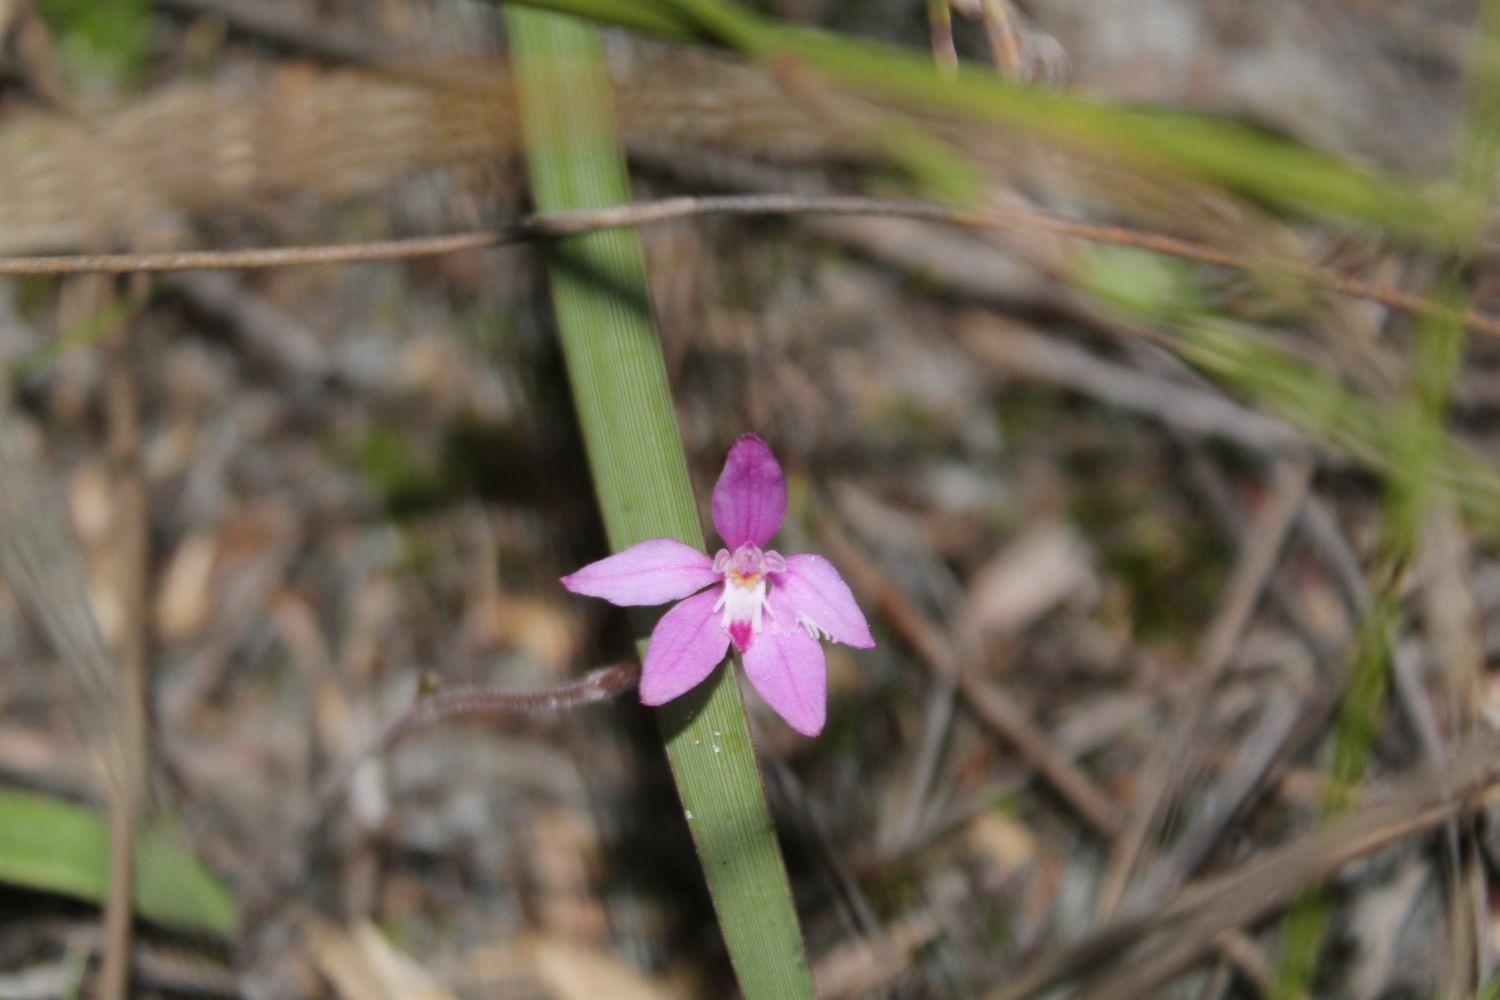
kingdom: Plantae
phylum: Tracheophyta
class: Liliopsida
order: Asparagales
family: Orchidaceae
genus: Caladenia
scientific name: Caladenia reptans
